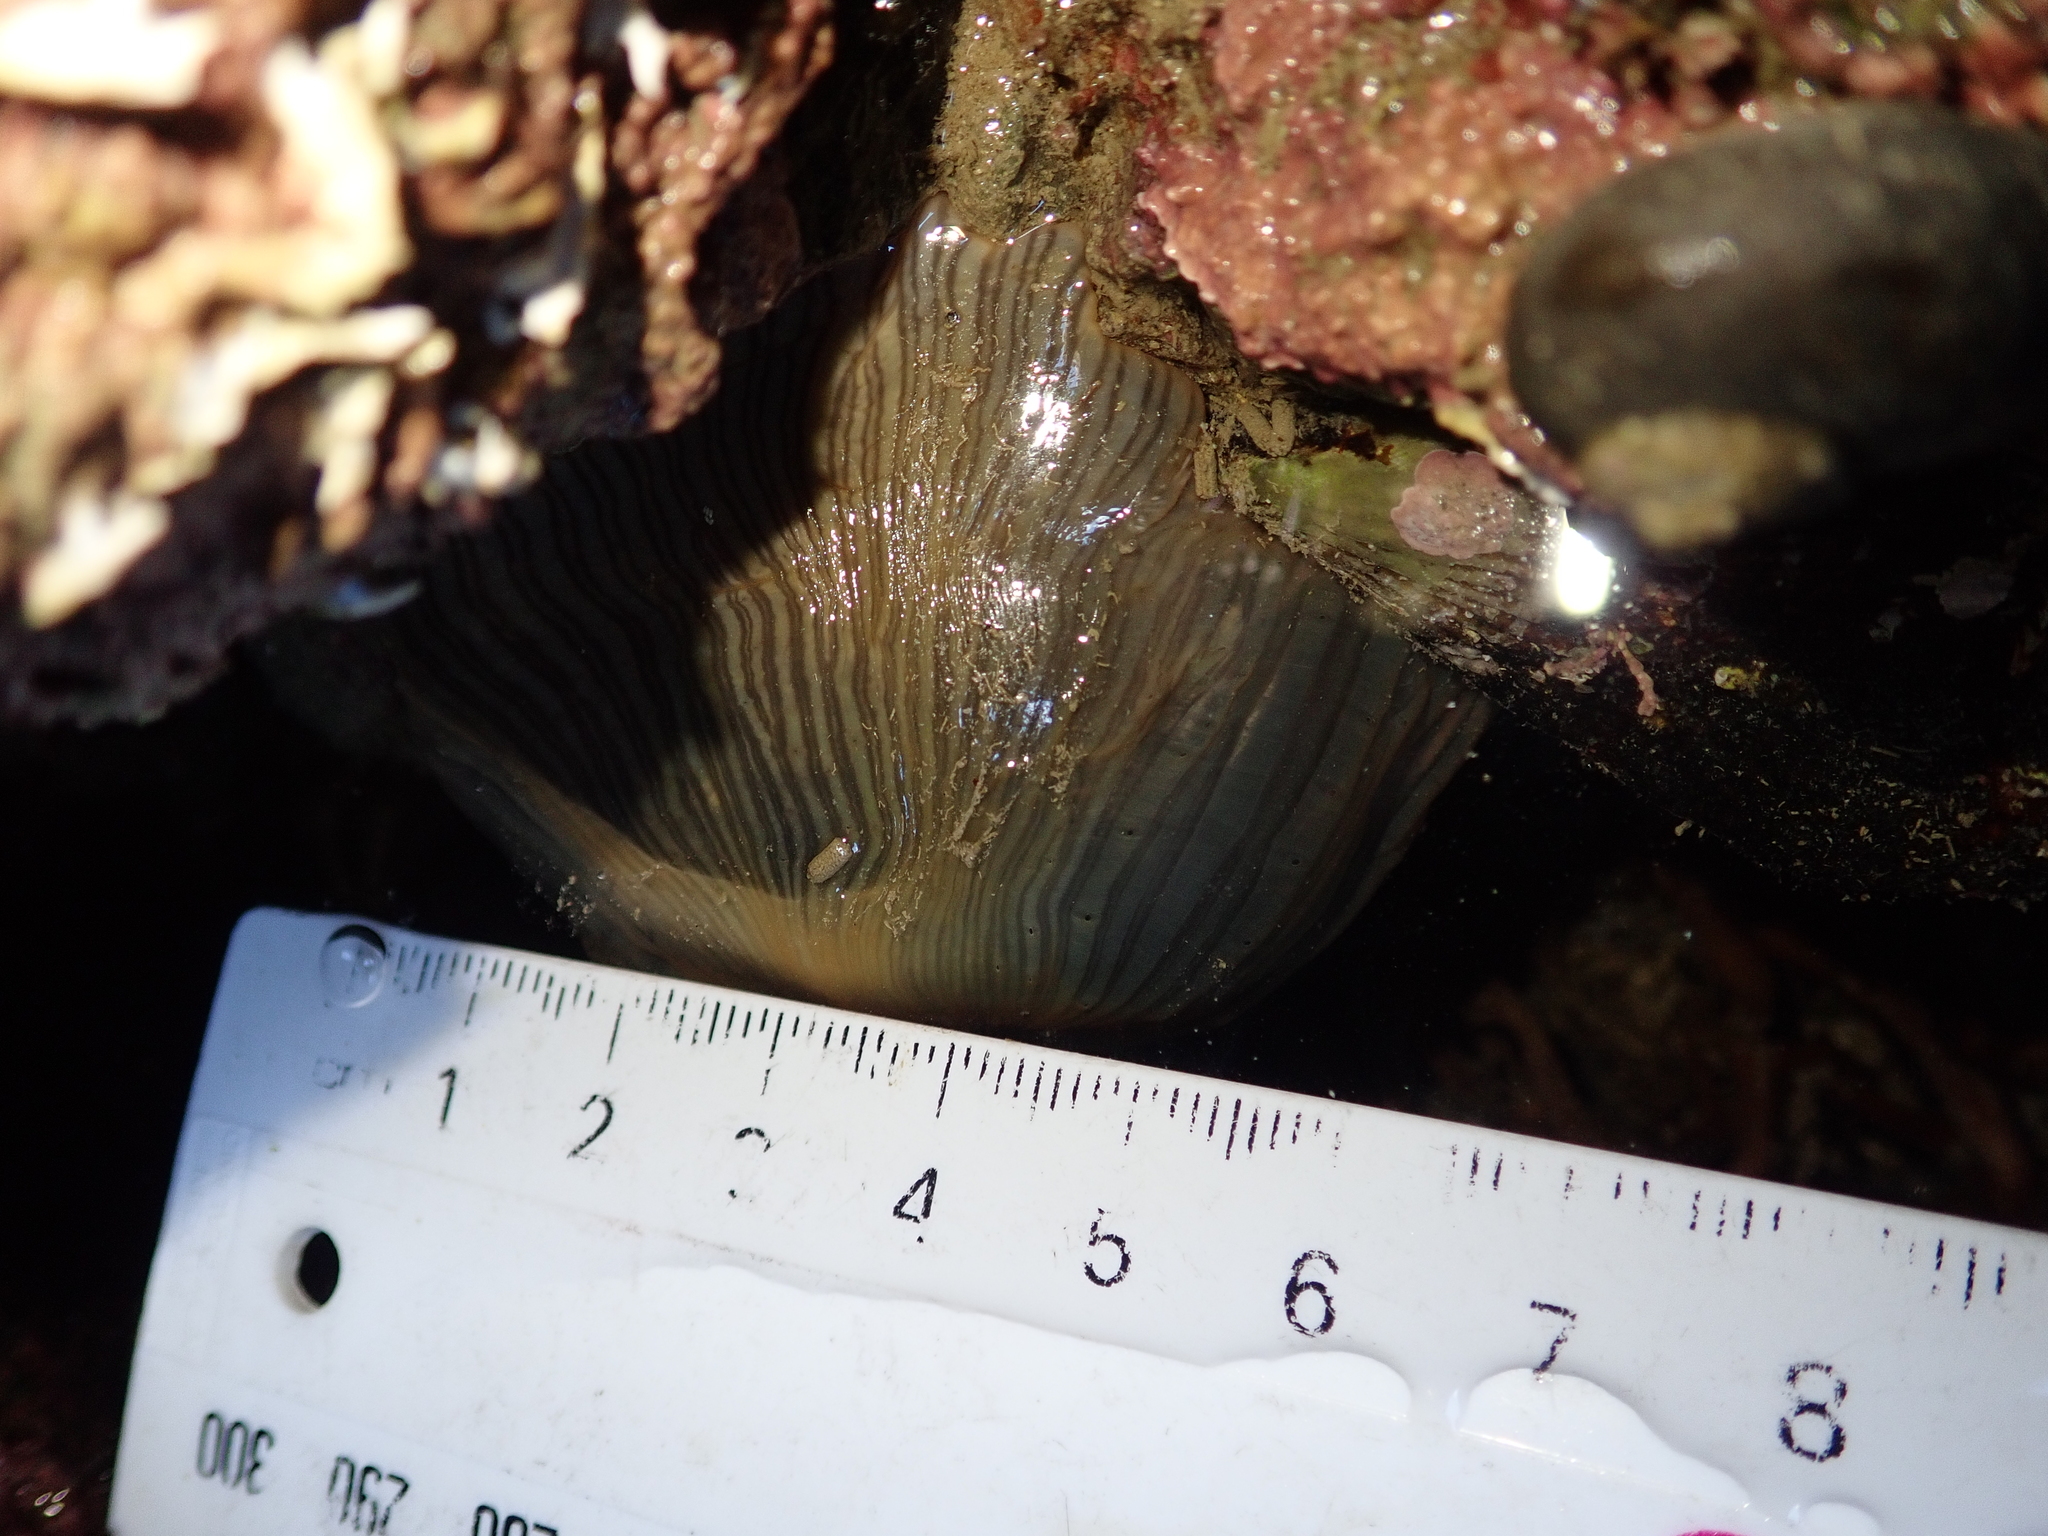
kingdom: Animalia
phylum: Cnidaria
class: Anthozoa
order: Actiniaria
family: Diadumenidae
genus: Diadumene
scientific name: Diadumene neozelanica
